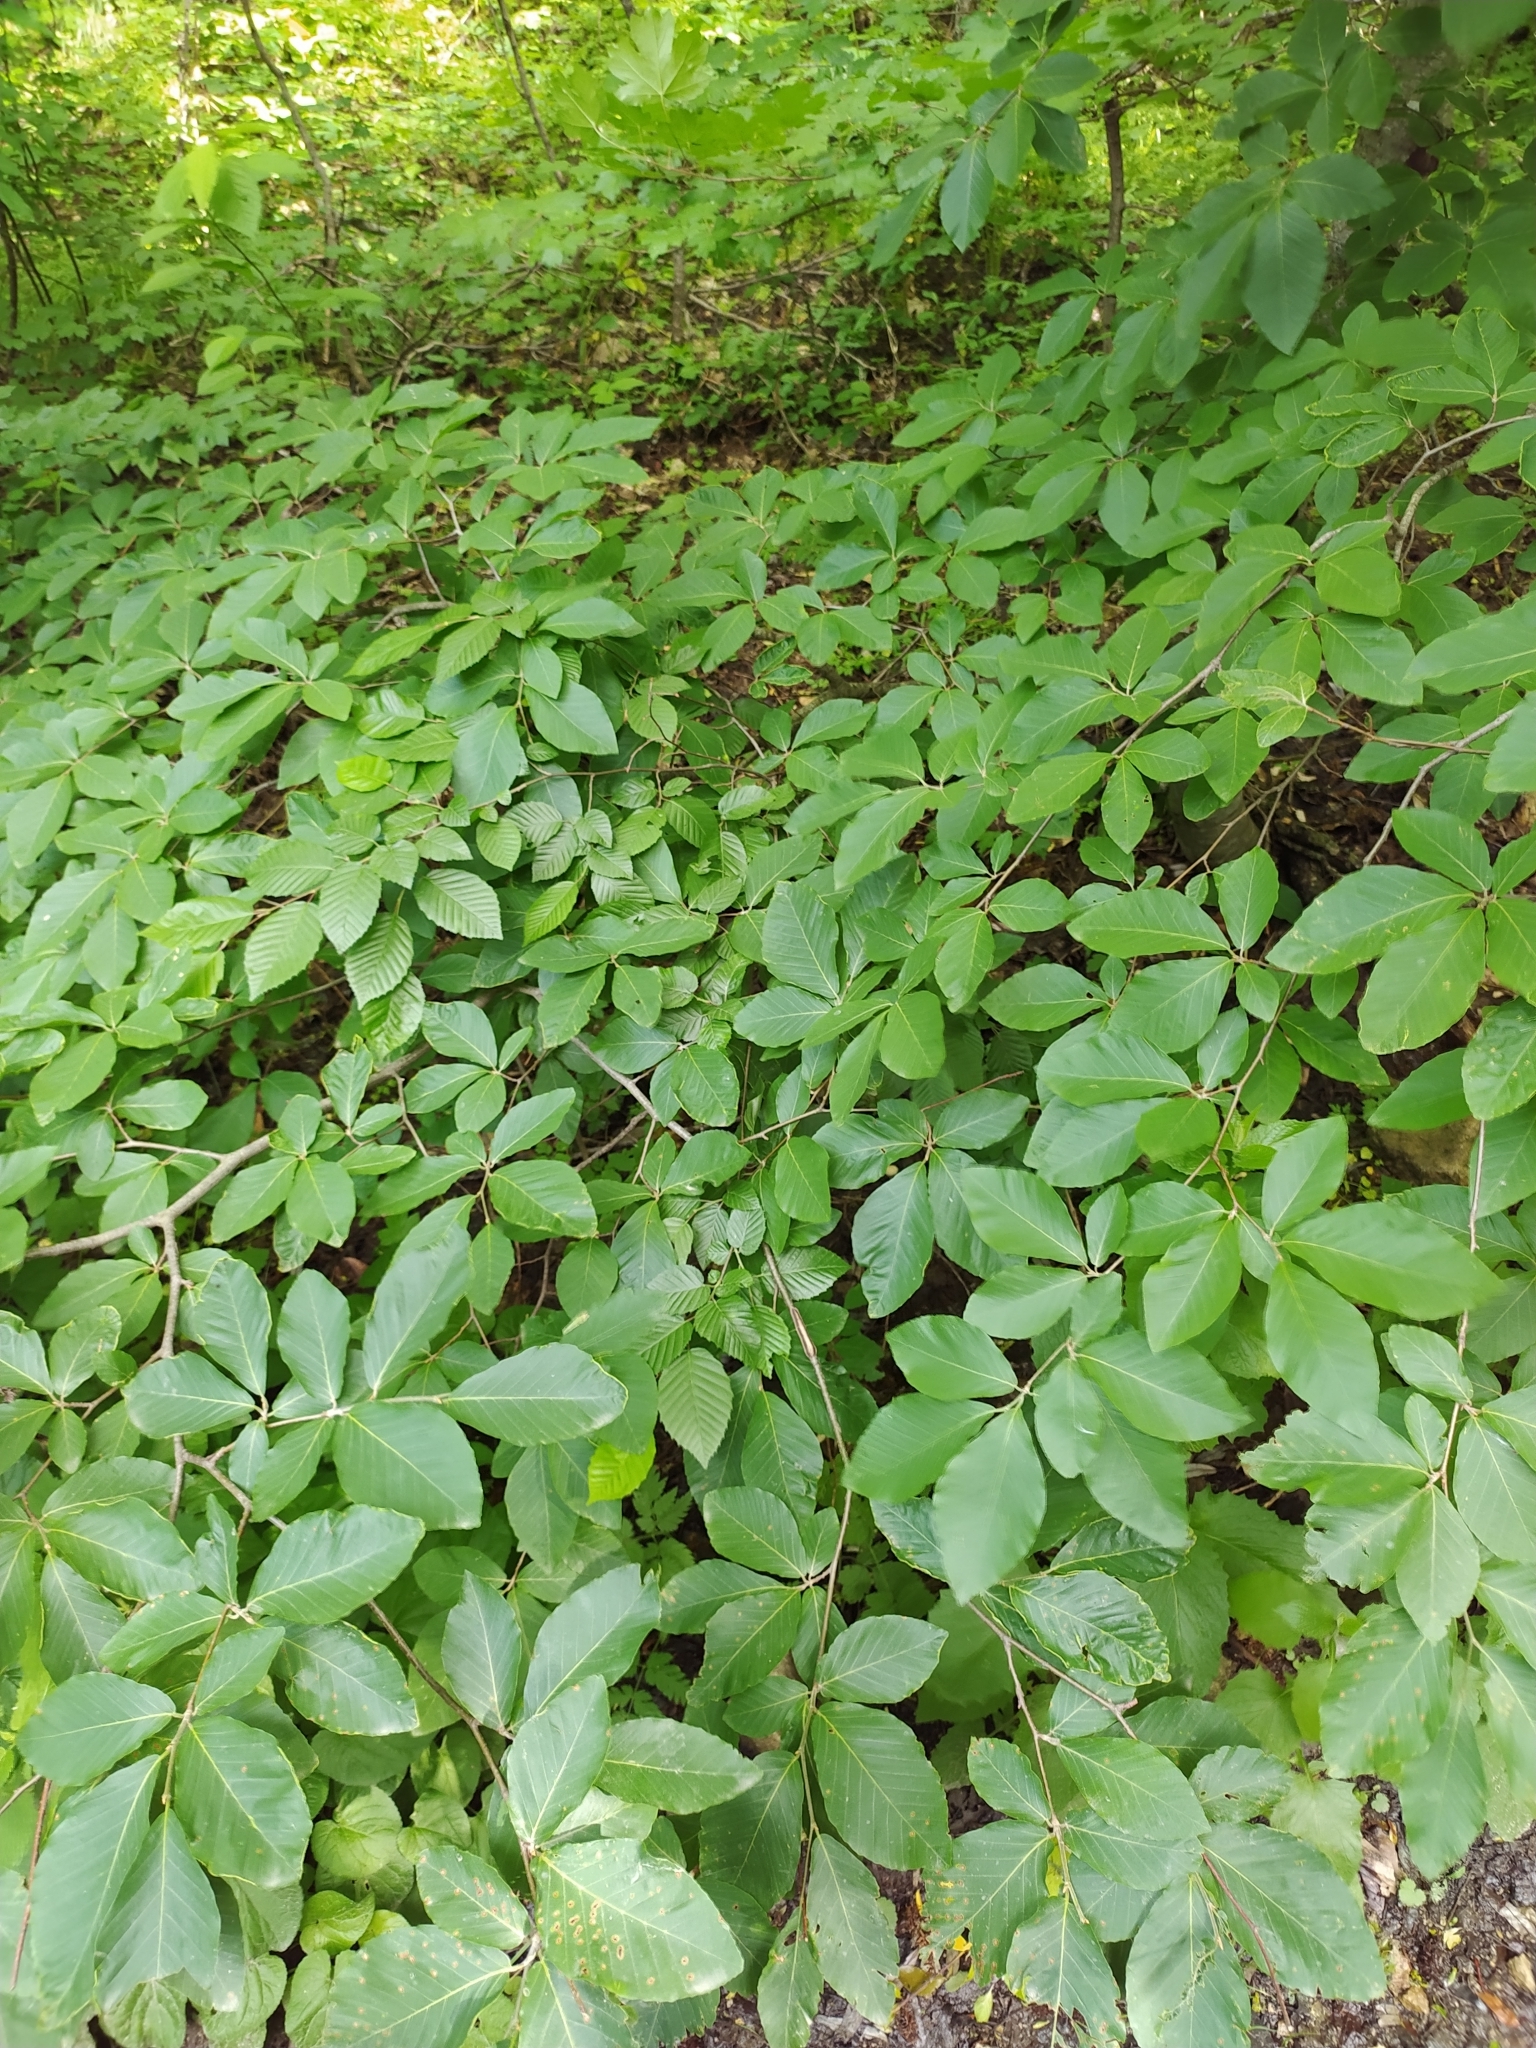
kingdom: Plantae
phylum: Tracheophyta
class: Magnoliopsida
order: Fagales
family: Fagaceae
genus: Fagus
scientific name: Fagus orientalis
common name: Oriental beech
